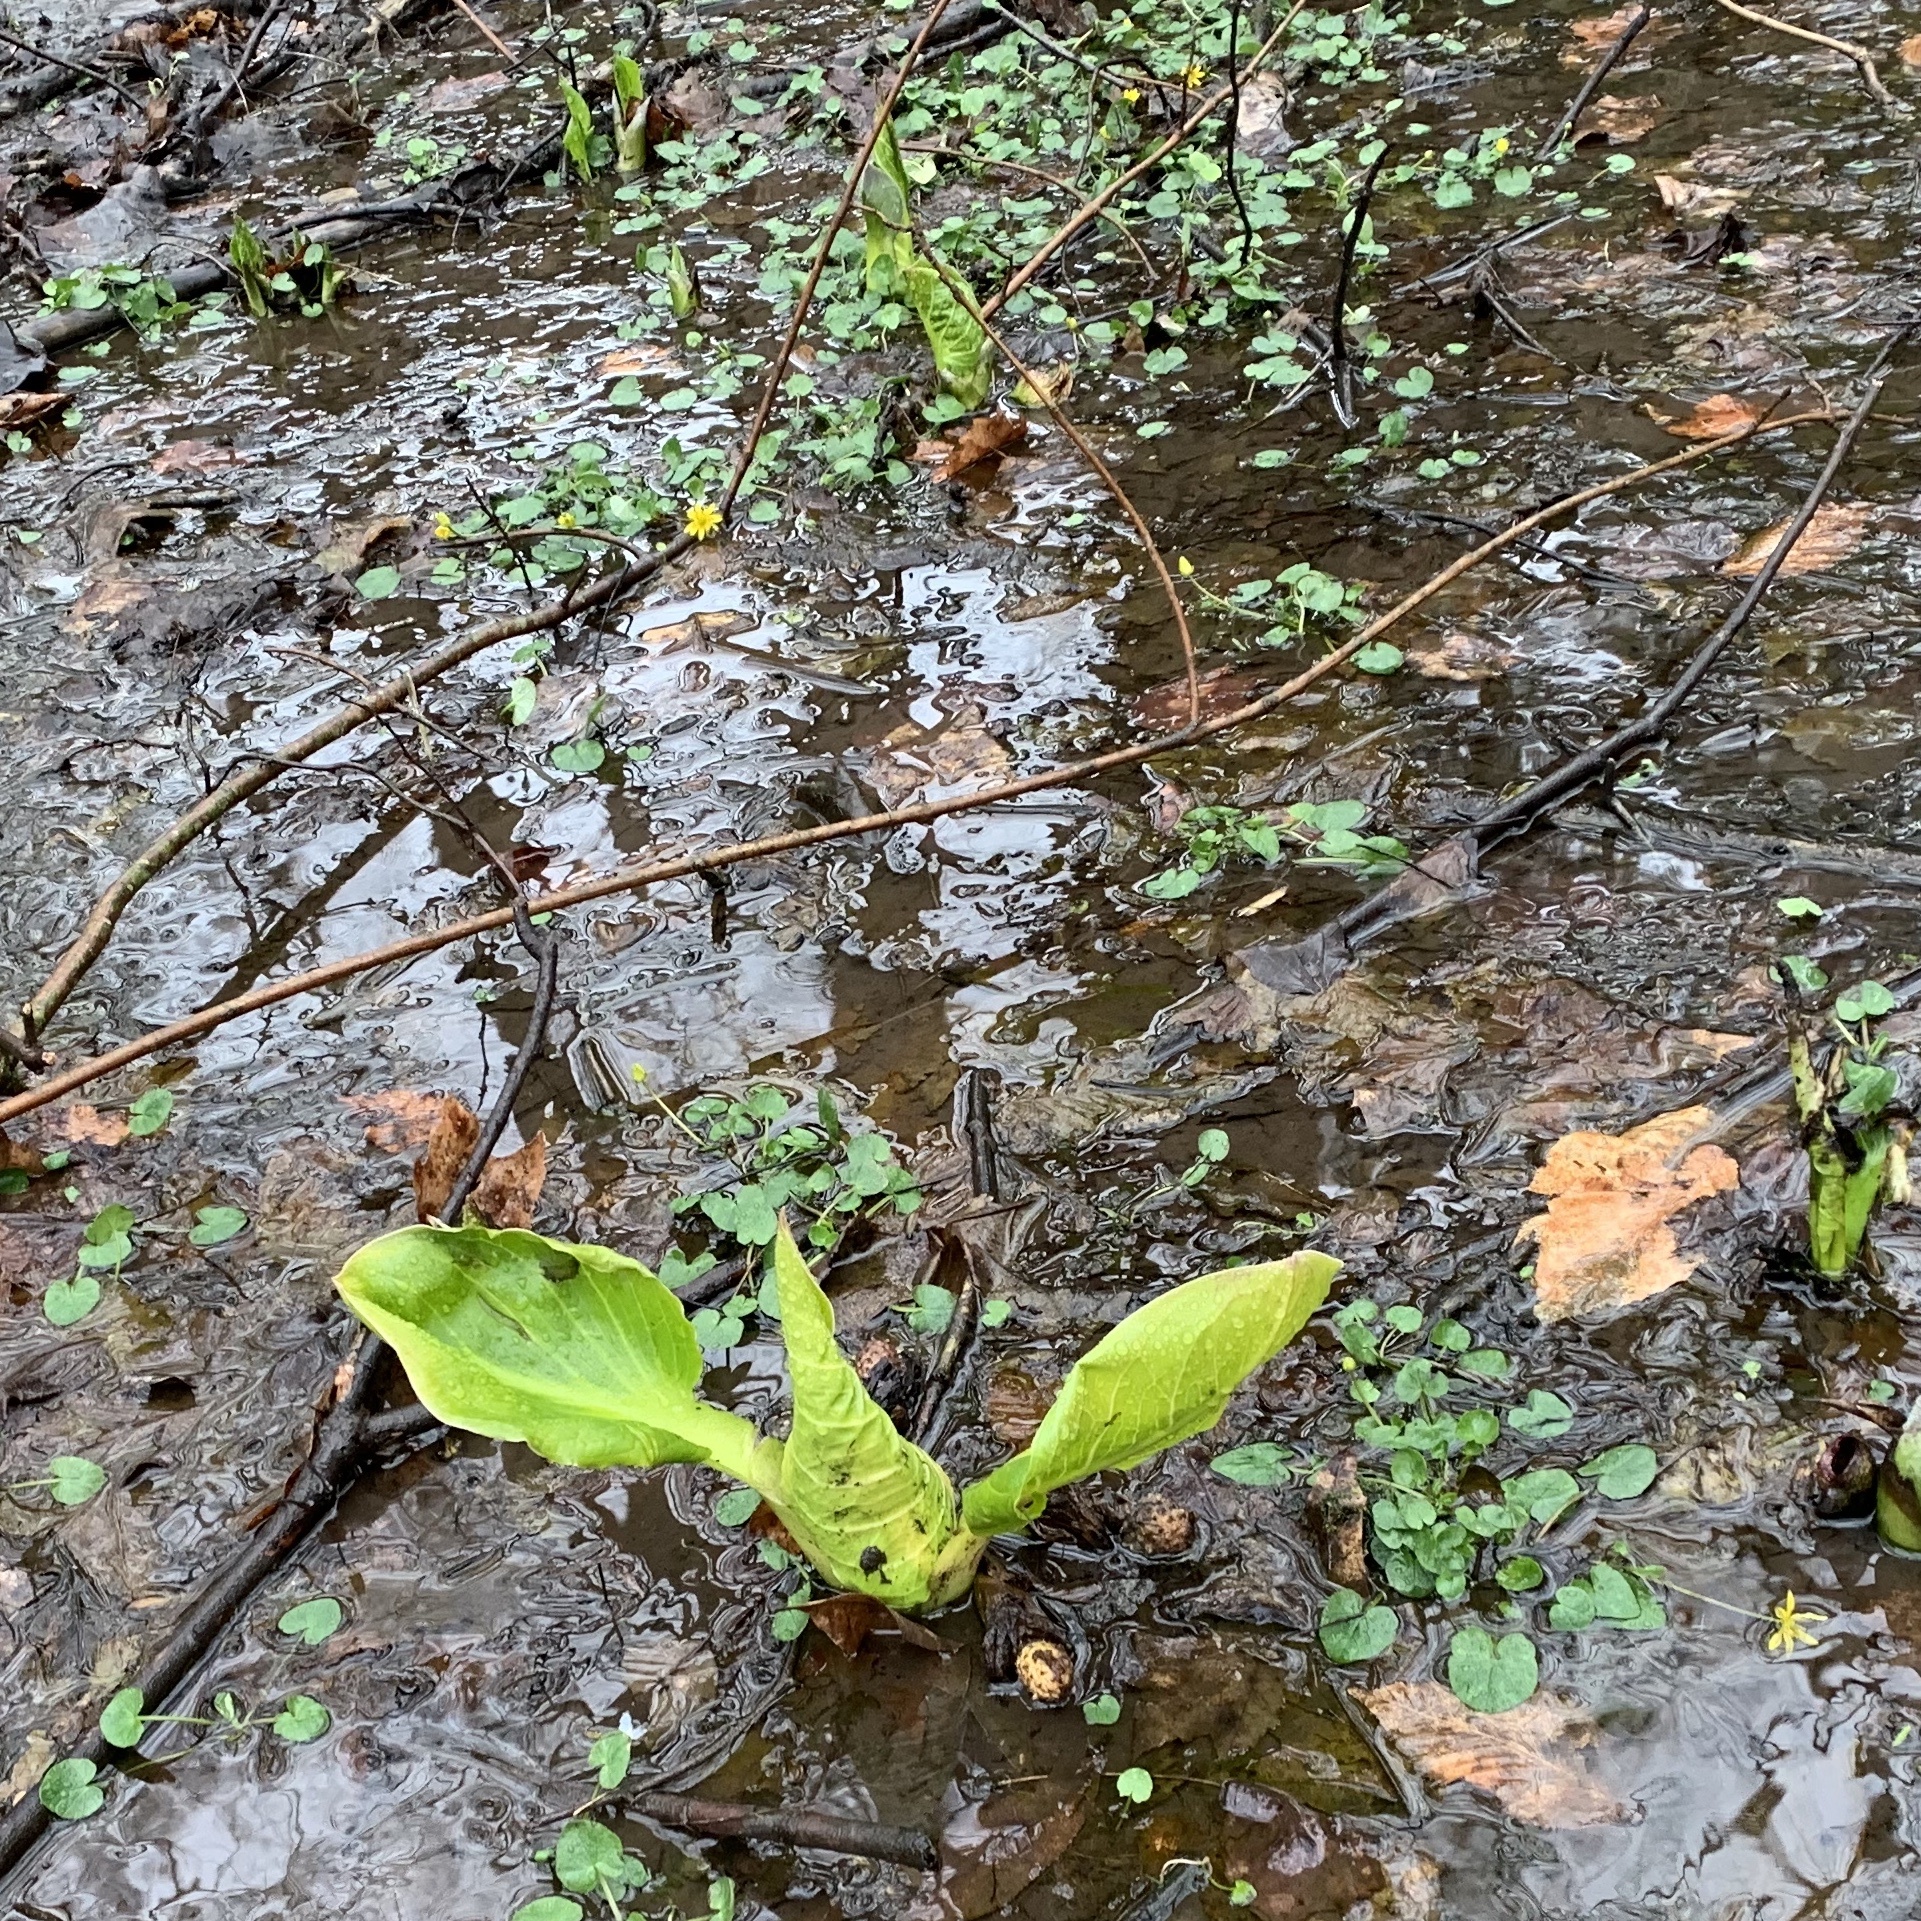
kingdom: Plantae
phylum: Tracheophyta
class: Liliopsida
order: Alismatales
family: Araceae
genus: Symplocarpus
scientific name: Symplocarpus foetidus
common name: Eastern skunk cabbage
